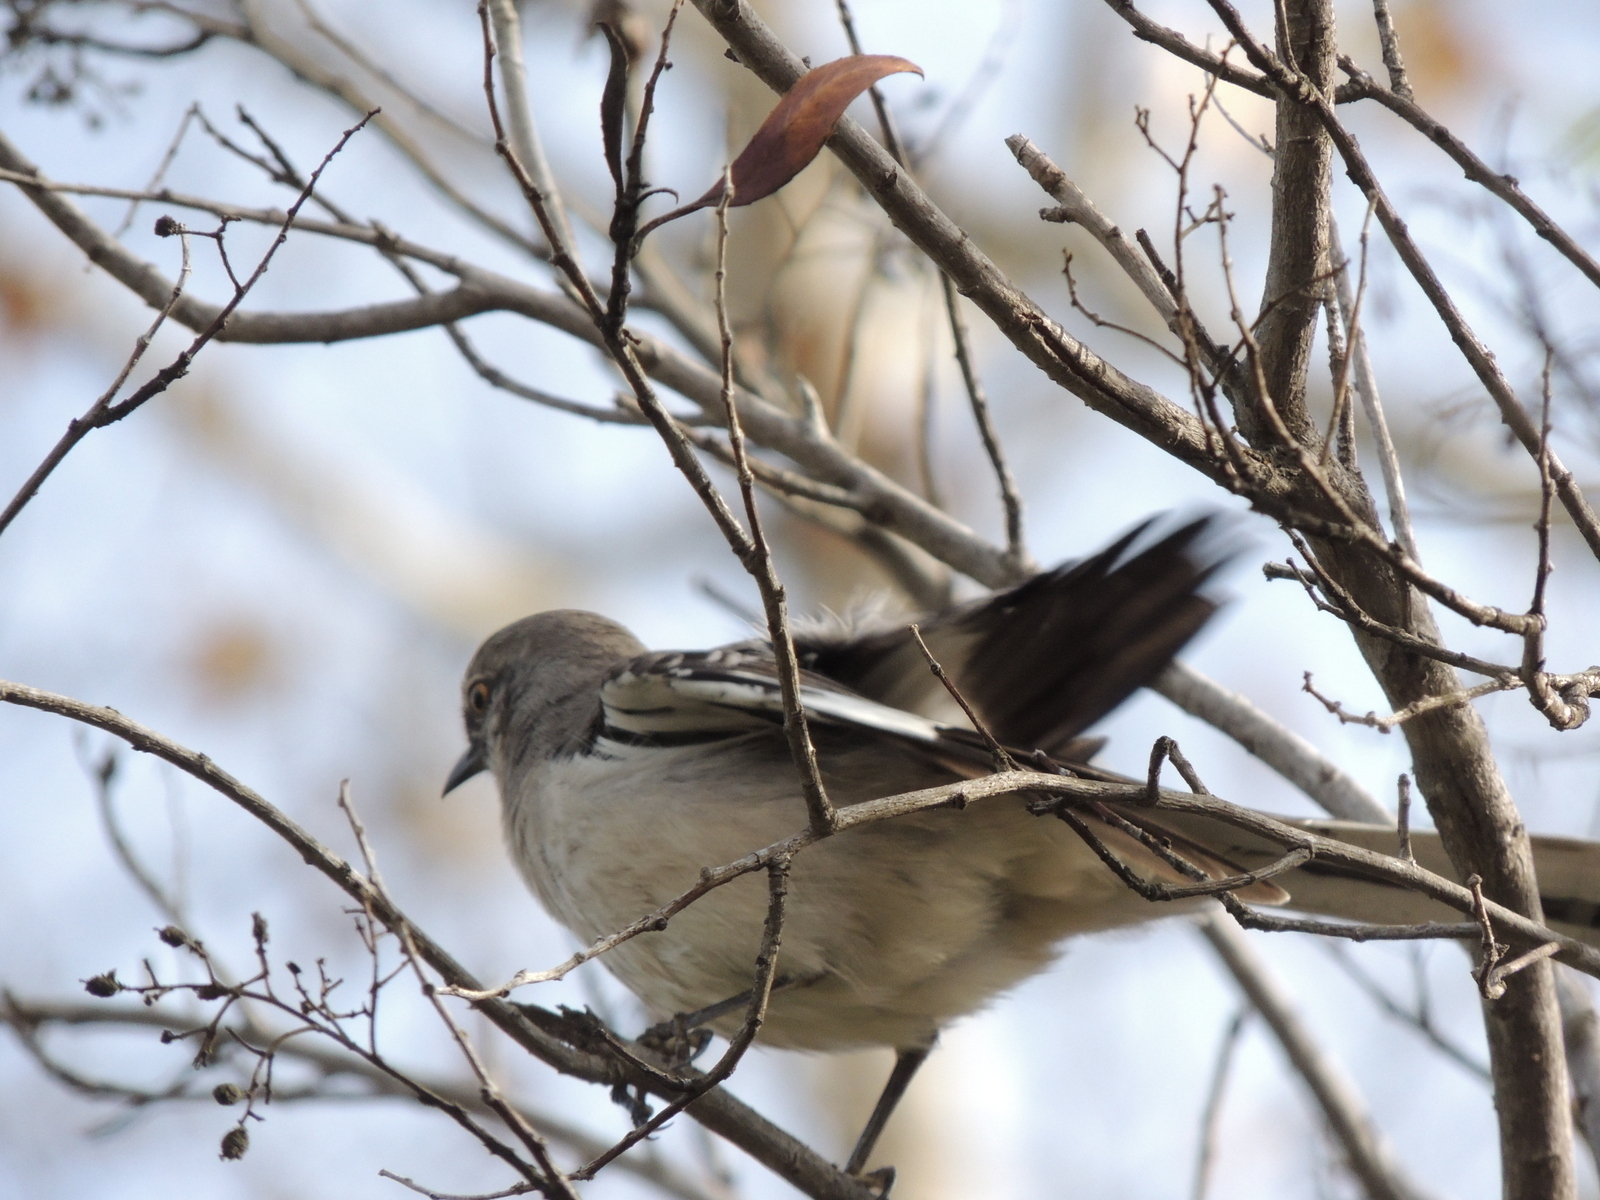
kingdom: Animalia
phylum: Chordata
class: Aves
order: Passeriformes
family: Mimidae
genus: Mimus
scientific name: Mimus polyglottos
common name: Northern mockingbird
